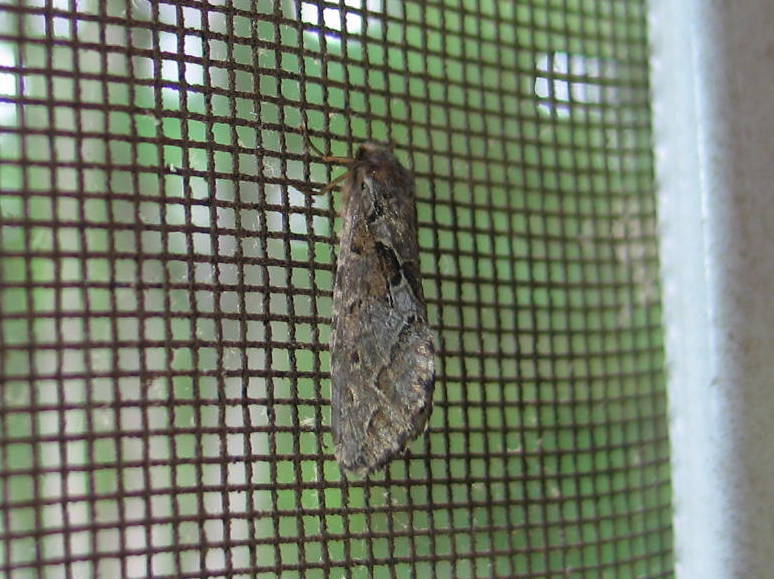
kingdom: Animalia
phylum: Arthropoda
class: Insecta
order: Lepidoptera
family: Hepialidae
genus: Korscheltellus
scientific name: Korscheltellus gracilis
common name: Conifer swift moth
